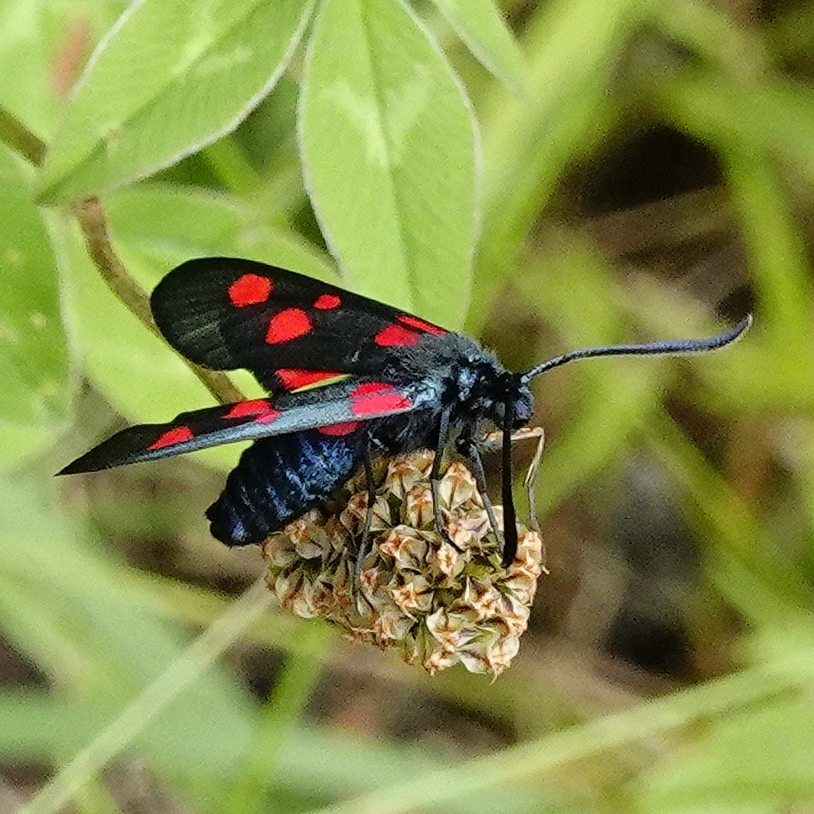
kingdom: Animalia
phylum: Arthropoda
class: Insecta
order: Lepidoptera
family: Zygaenidae
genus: Zygaena
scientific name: Zygaena lonicerae
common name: Narrow-bordered five-spot burnet
